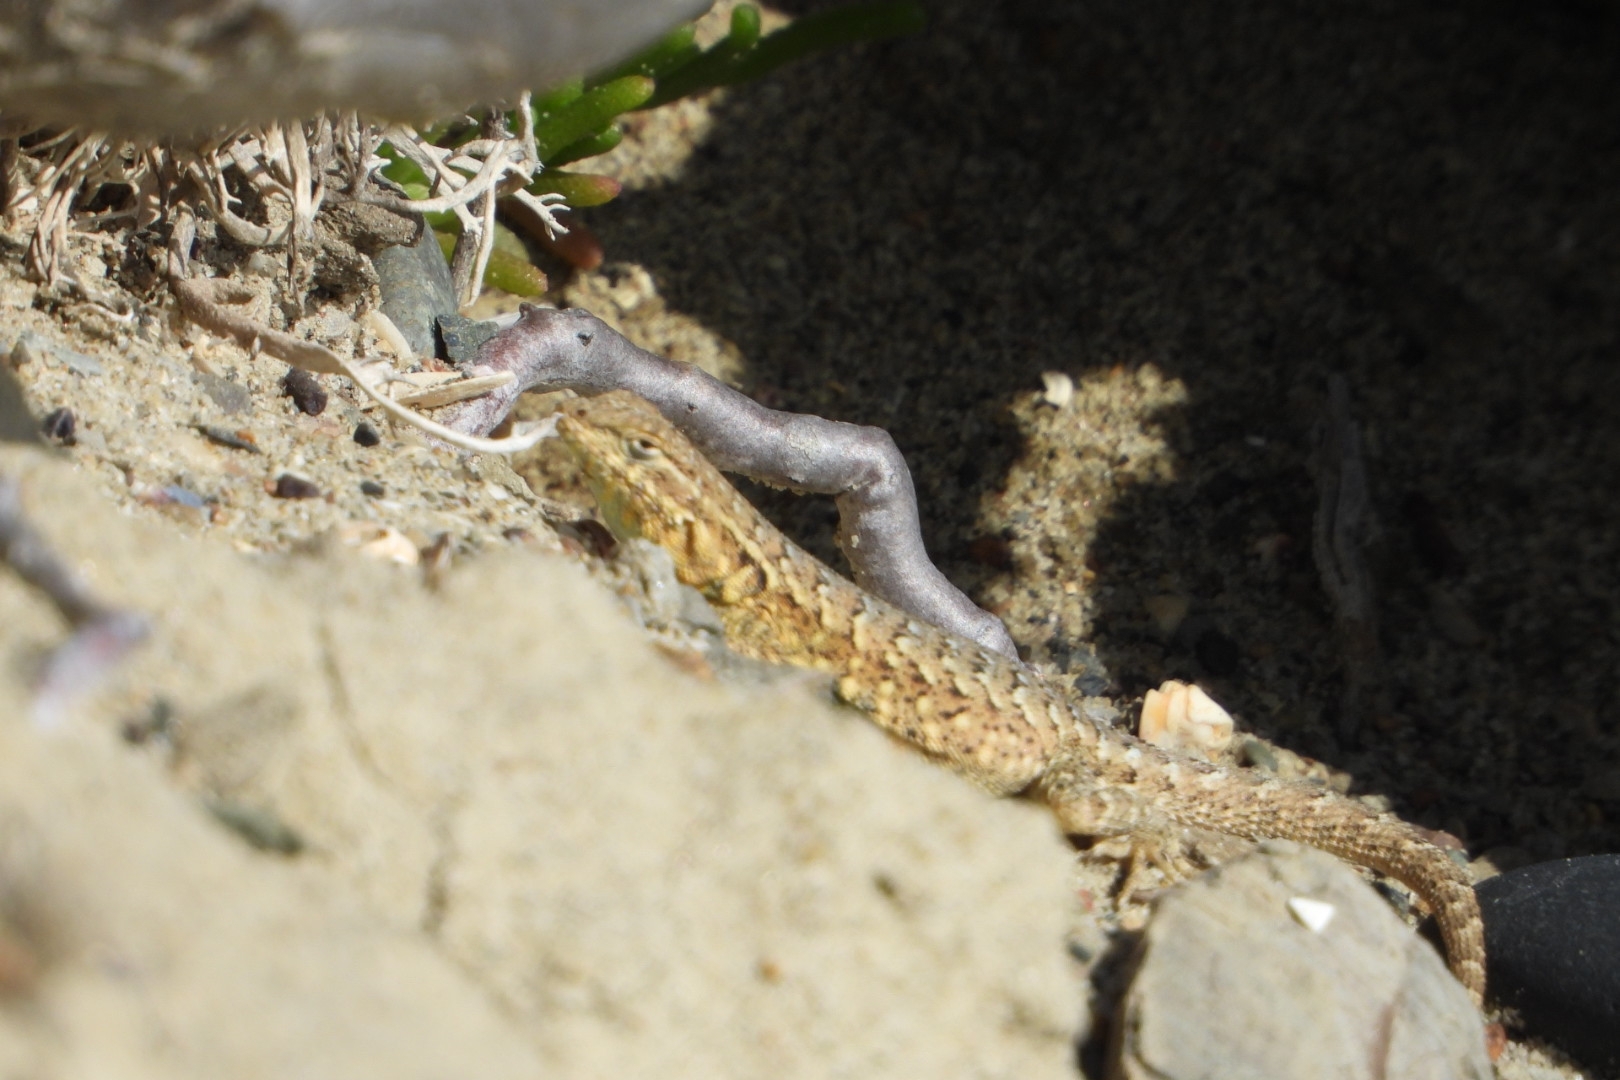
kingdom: Animalia
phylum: Chordata
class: Squamata
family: Phrynosomatidae
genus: Uta
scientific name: Uta stansburiana
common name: Side-blotched lizard
